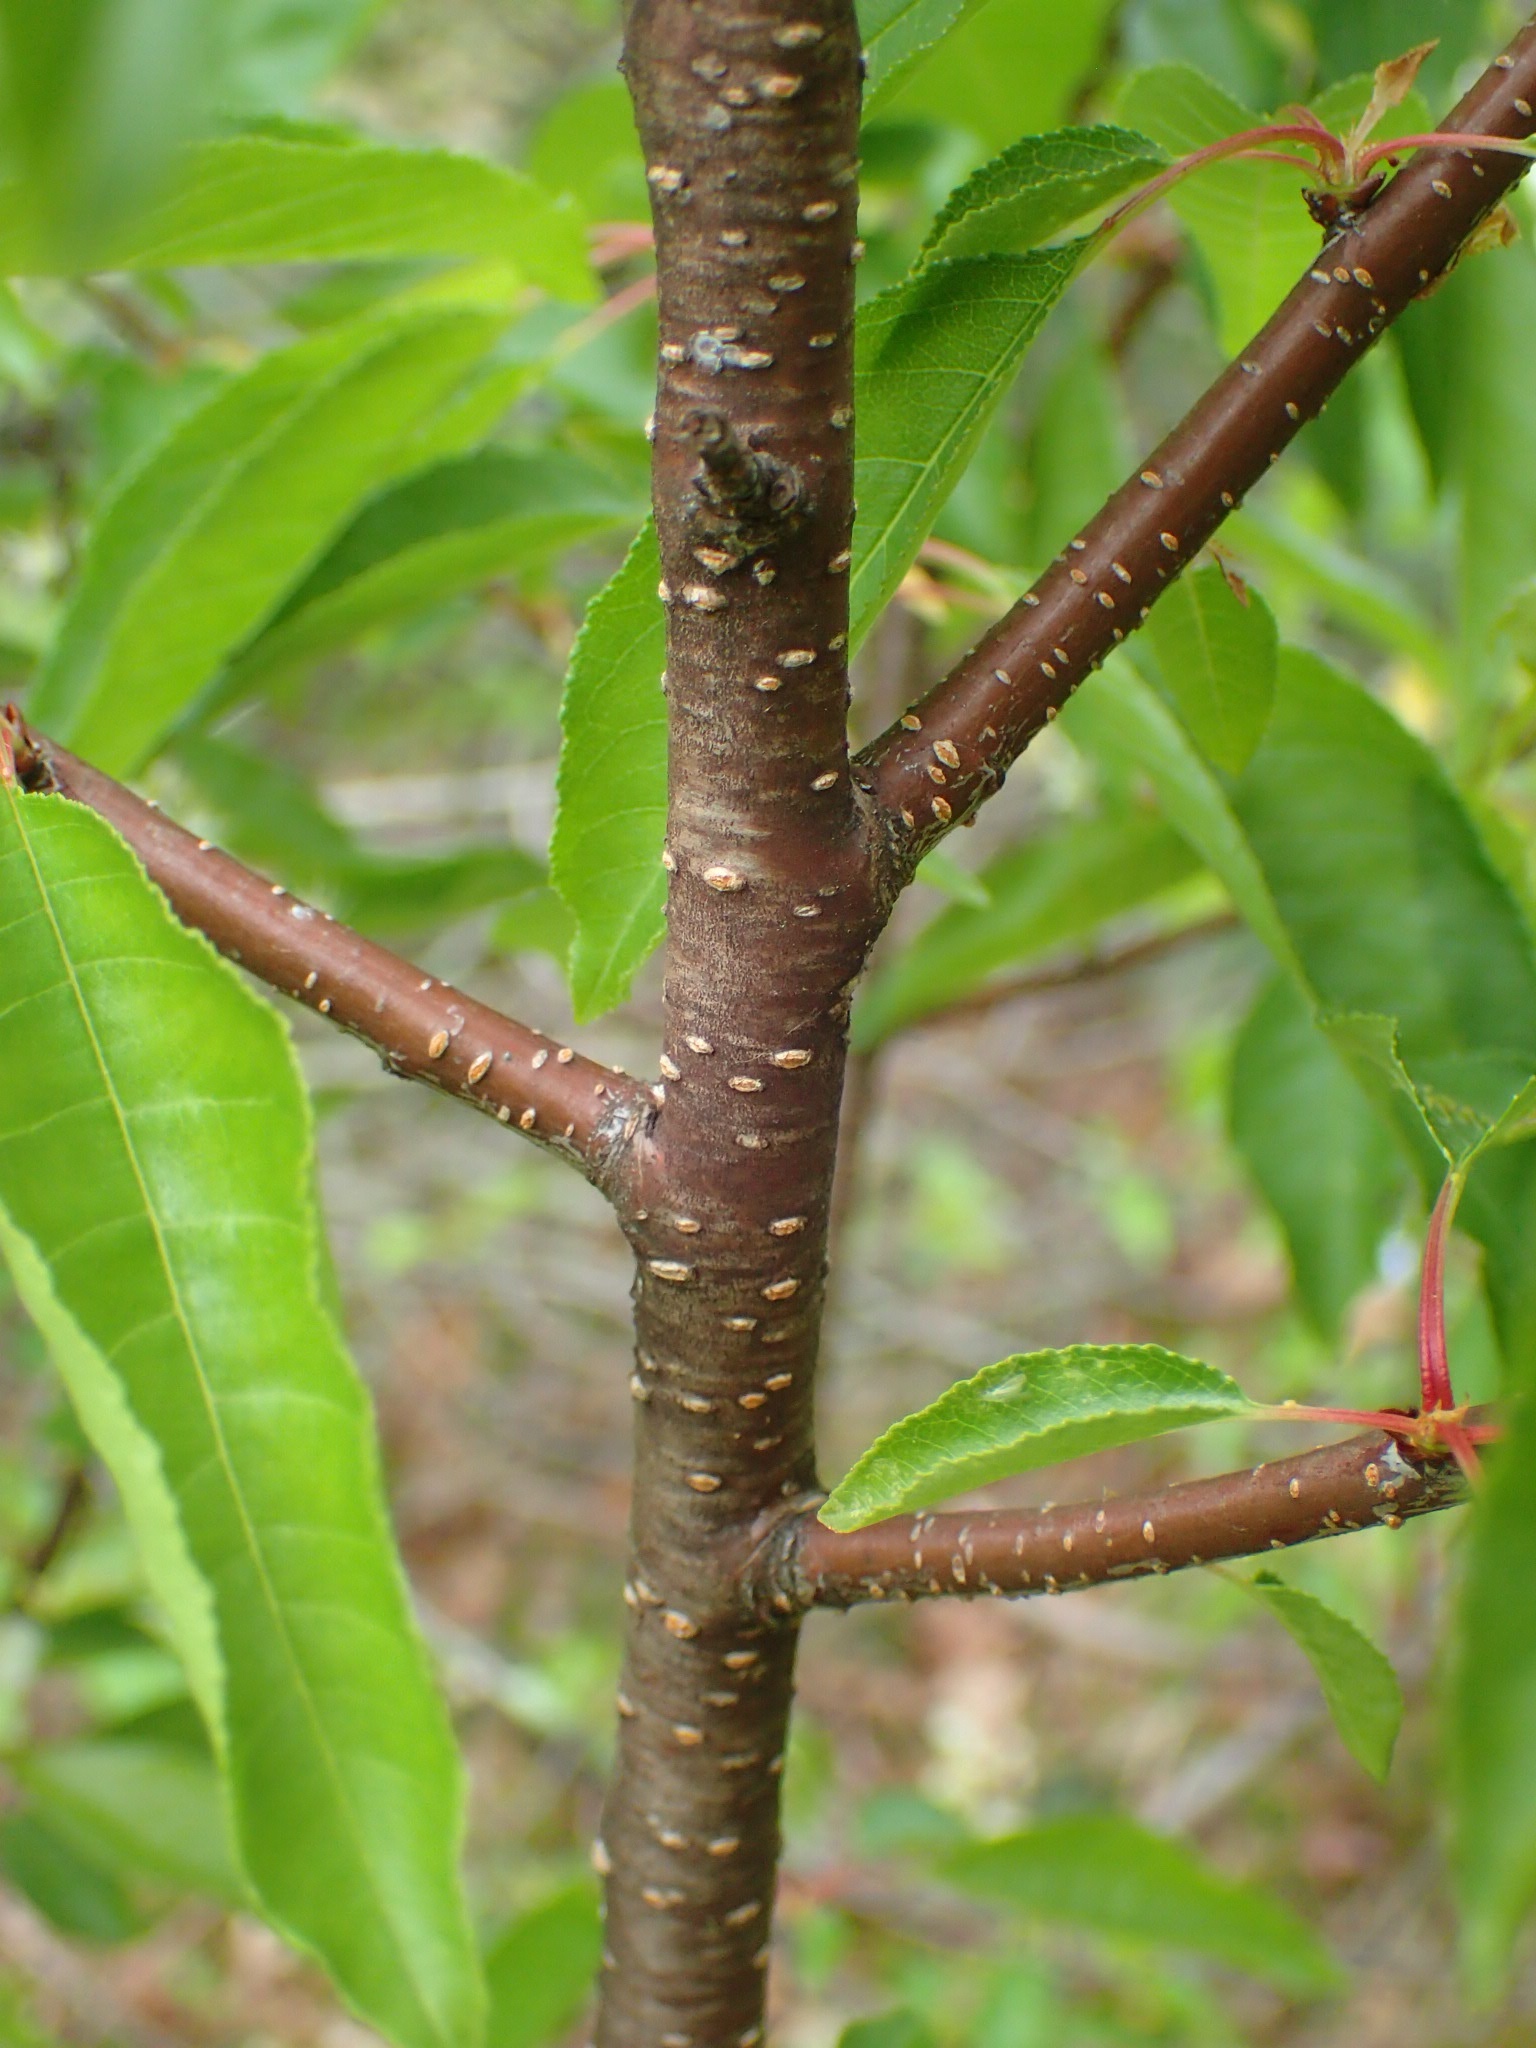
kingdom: Plantae
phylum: Tracheophyta
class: Magnoliopsida
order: Rosales
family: Rosaceae
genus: Prunus
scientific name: Prunus pensylvanica
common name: Pin cherry
